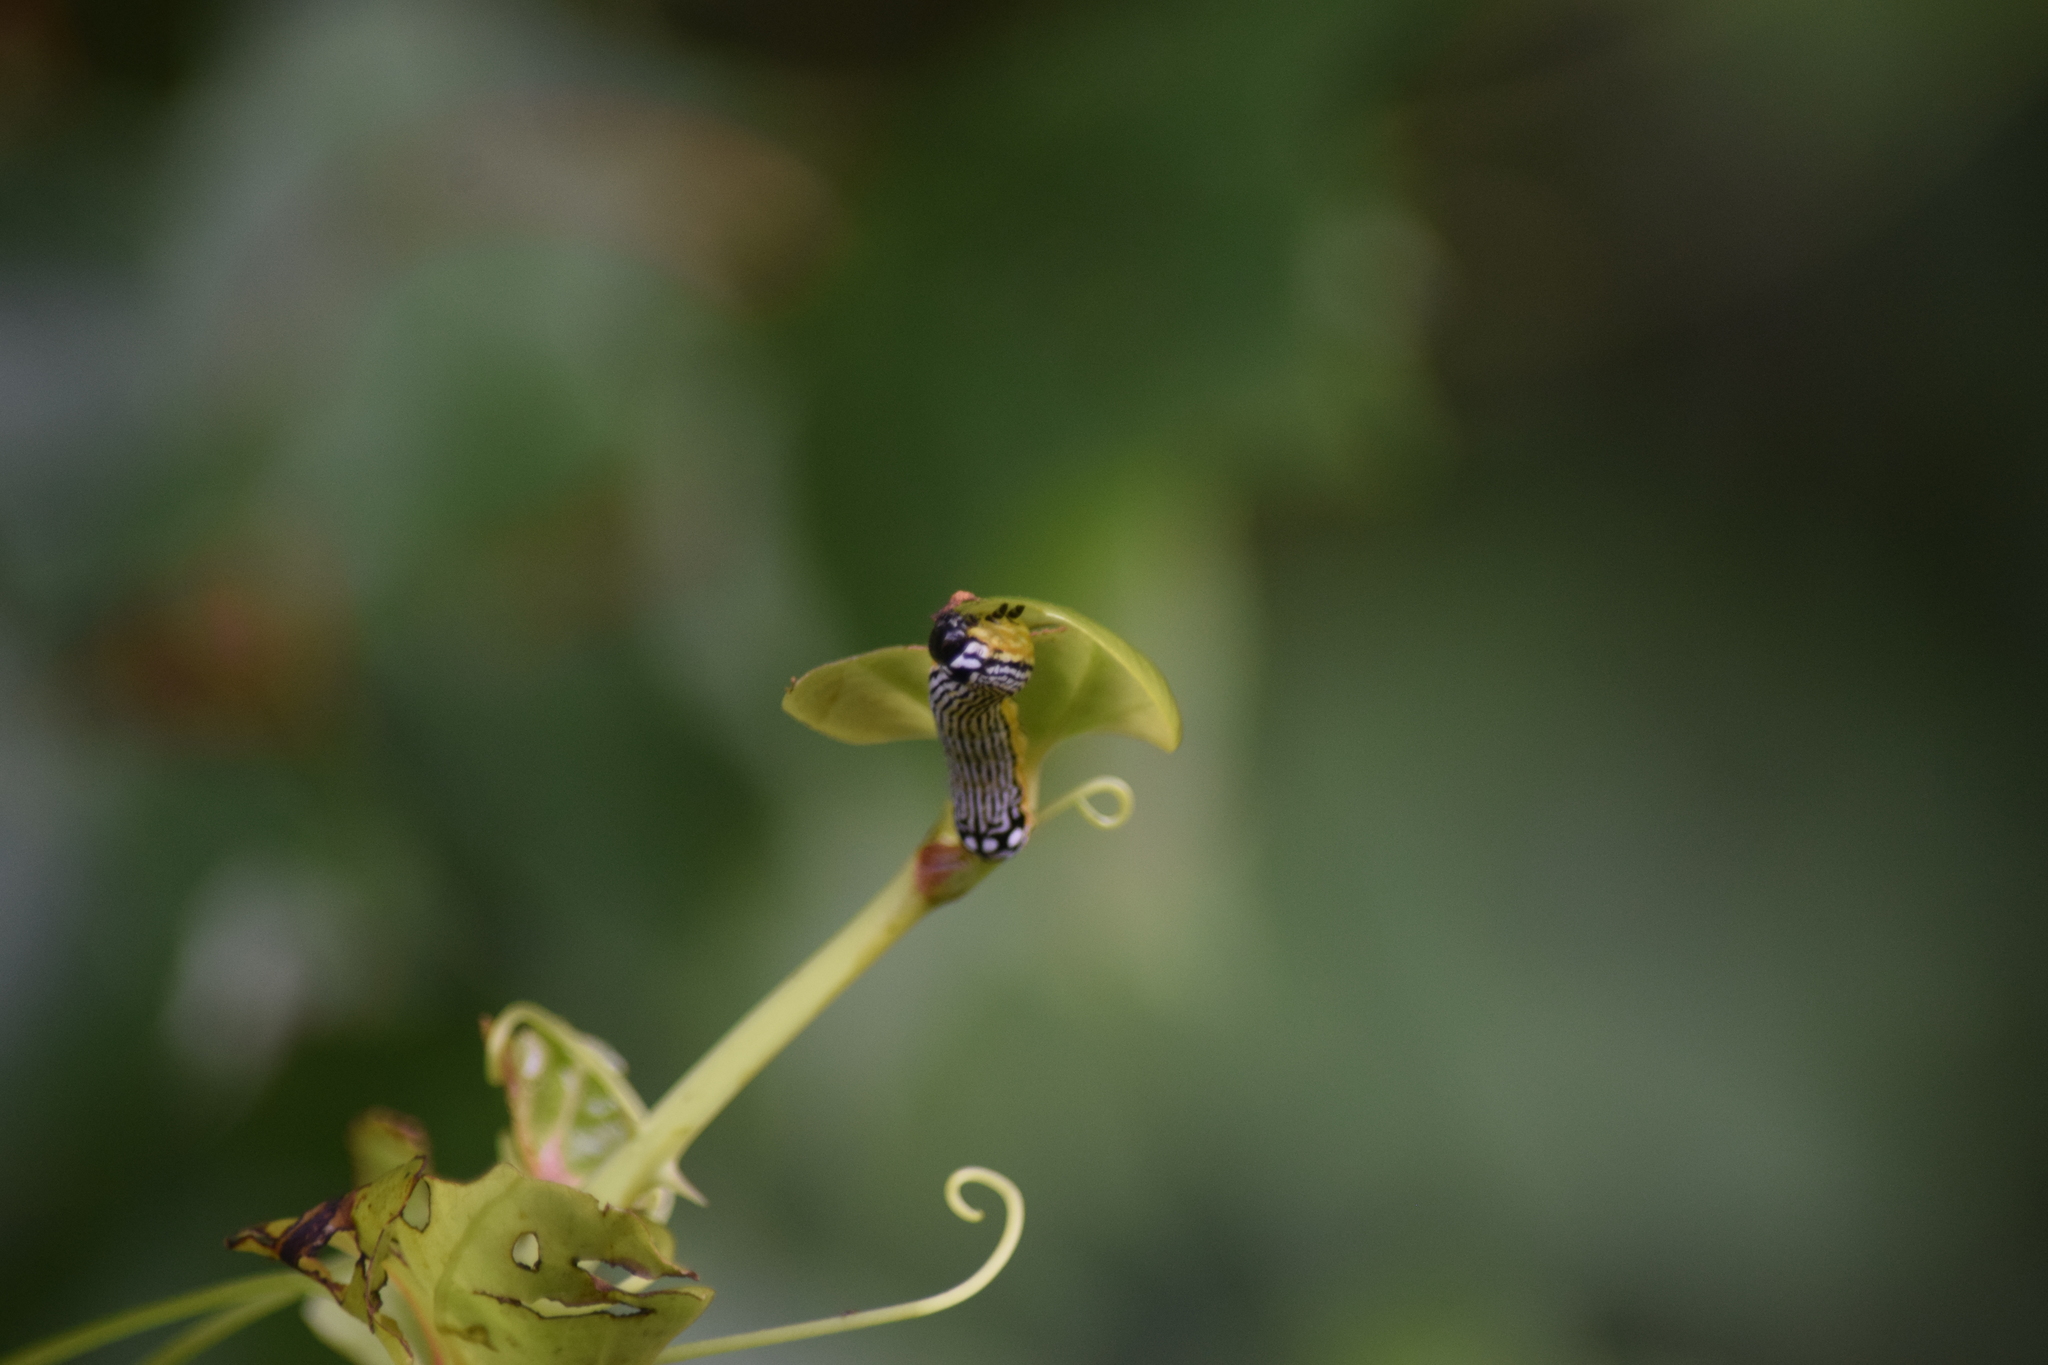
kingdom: Animalia
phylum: Arthropoda
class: Insecta
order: Lepidoptera
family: Noctuidae
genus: Phosphila
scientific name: Phosphila turbulenta
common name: Turbulent phosphila moth
